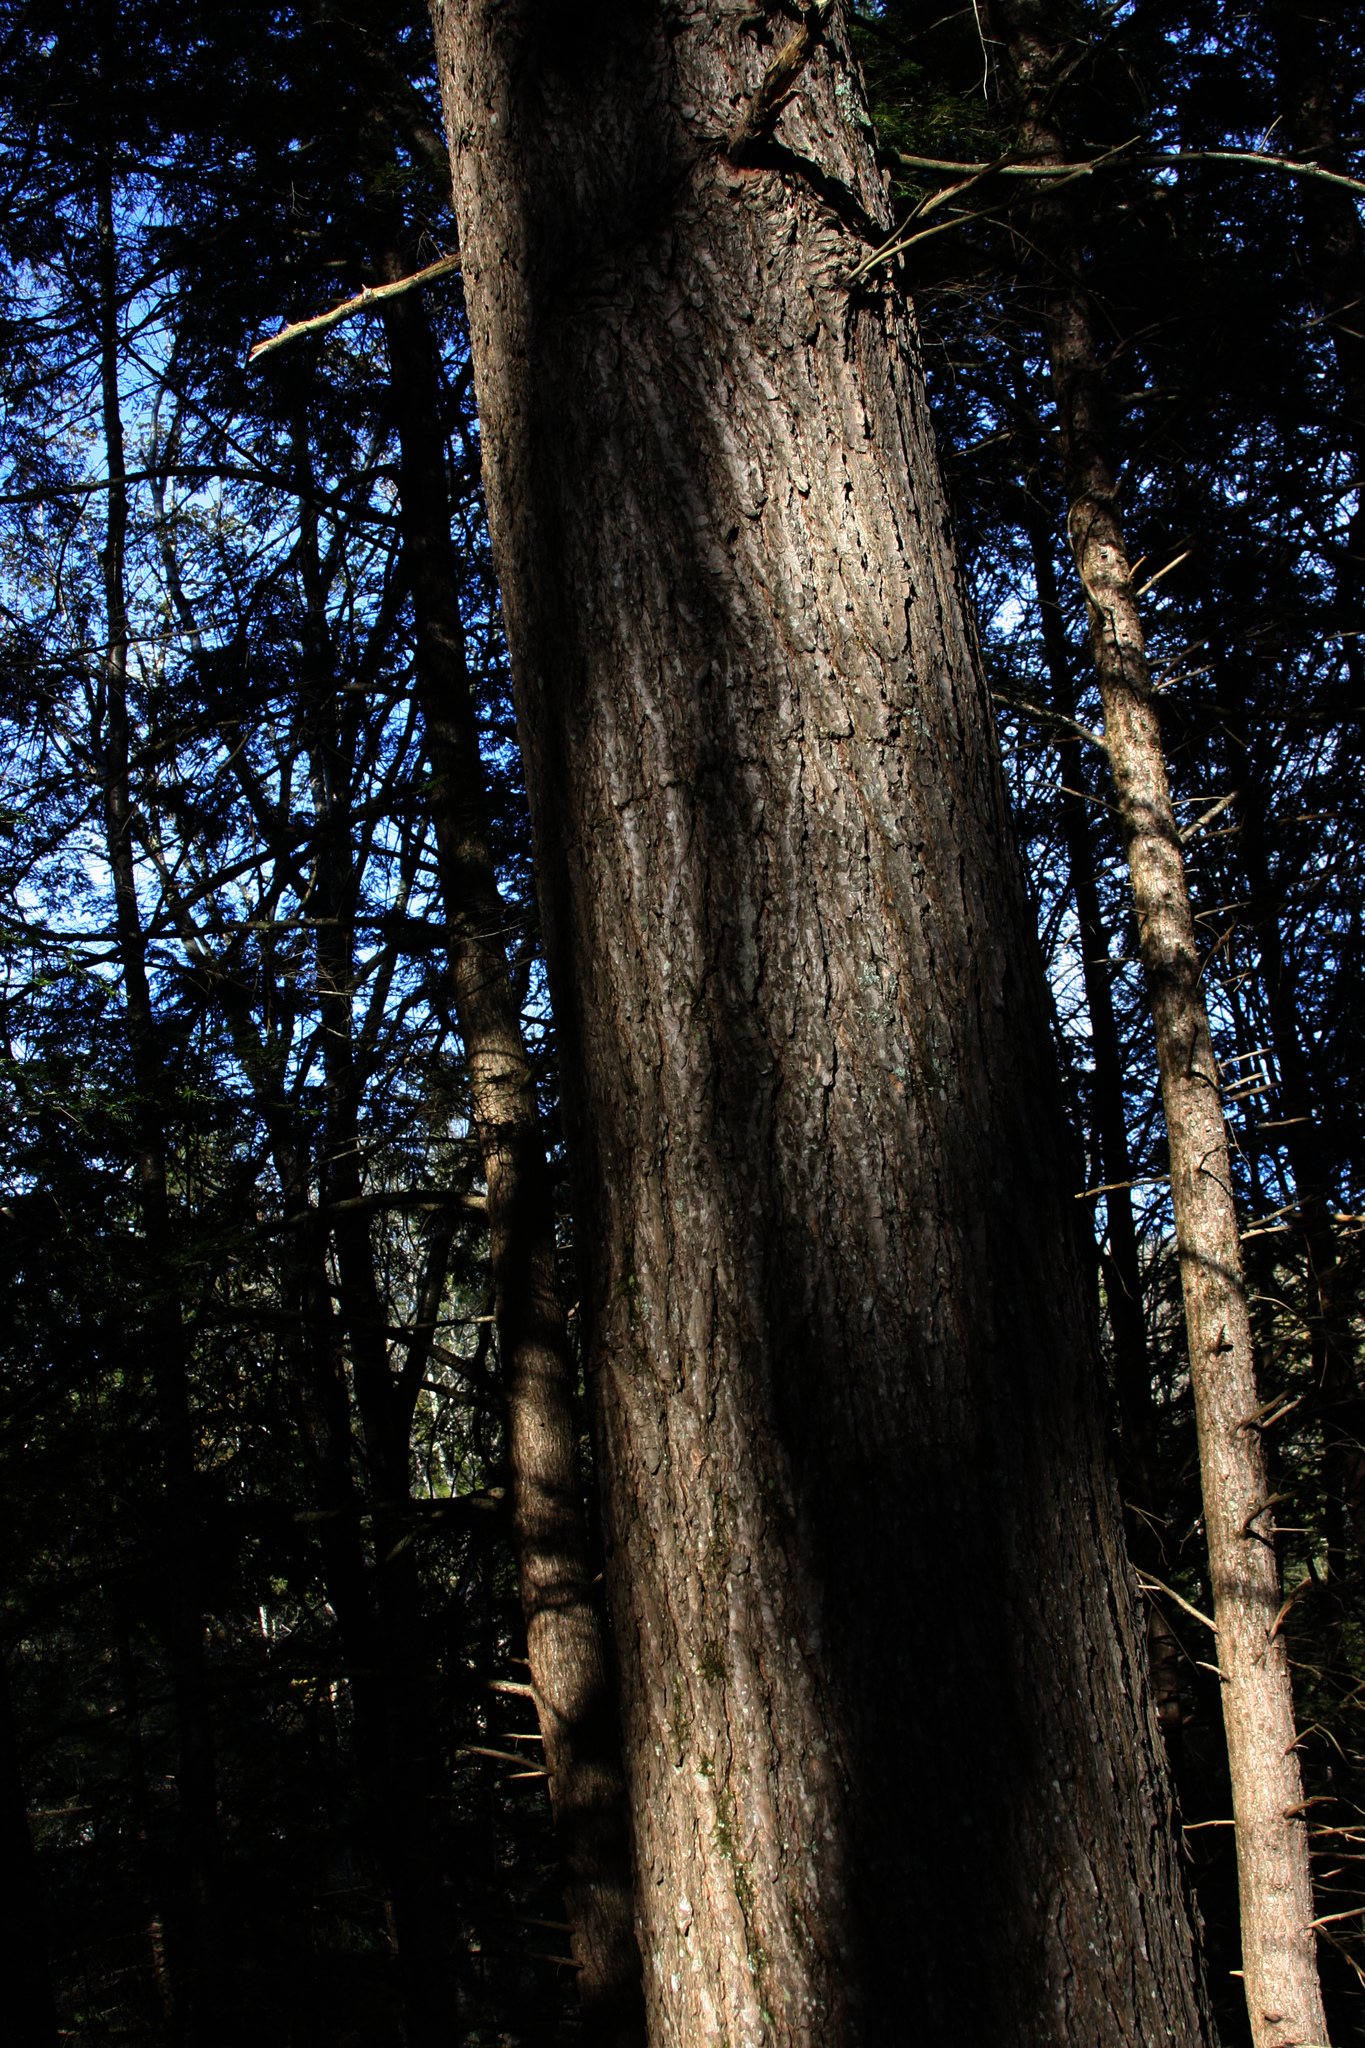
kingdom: Plantae
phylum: Tracheophyta
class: Pinopsida
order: Pinales
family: Pinaceae
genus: Tsuga
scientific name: Tsuga canadensis
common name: Eastern hemlock
